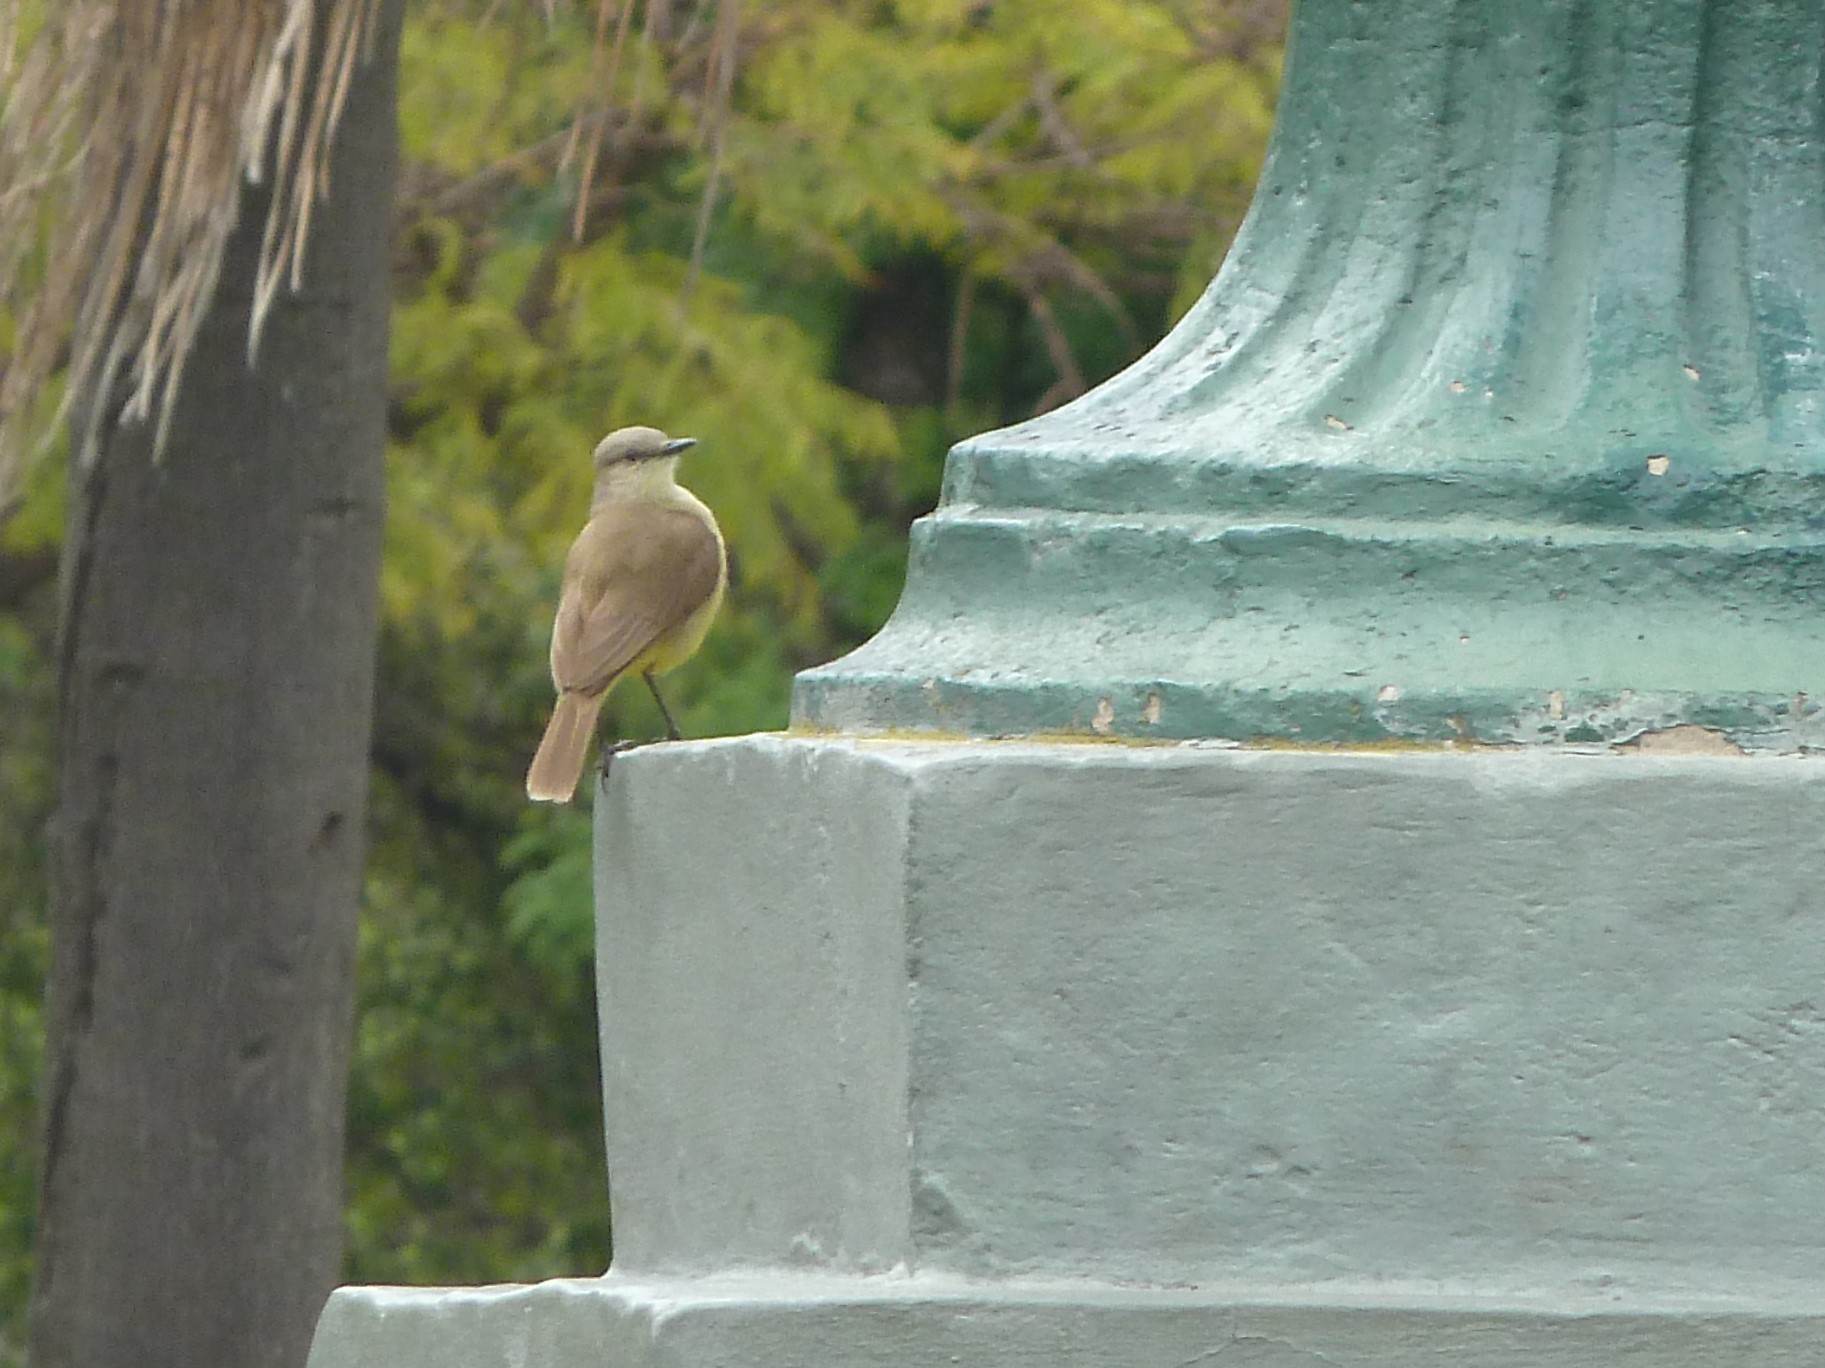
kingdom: Animalia
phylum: Chordata
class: Aves
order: Passeriformes
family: Tyrannidae
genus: Machetornis
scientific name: Machetornis rixosa
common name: Cattle tyrant
